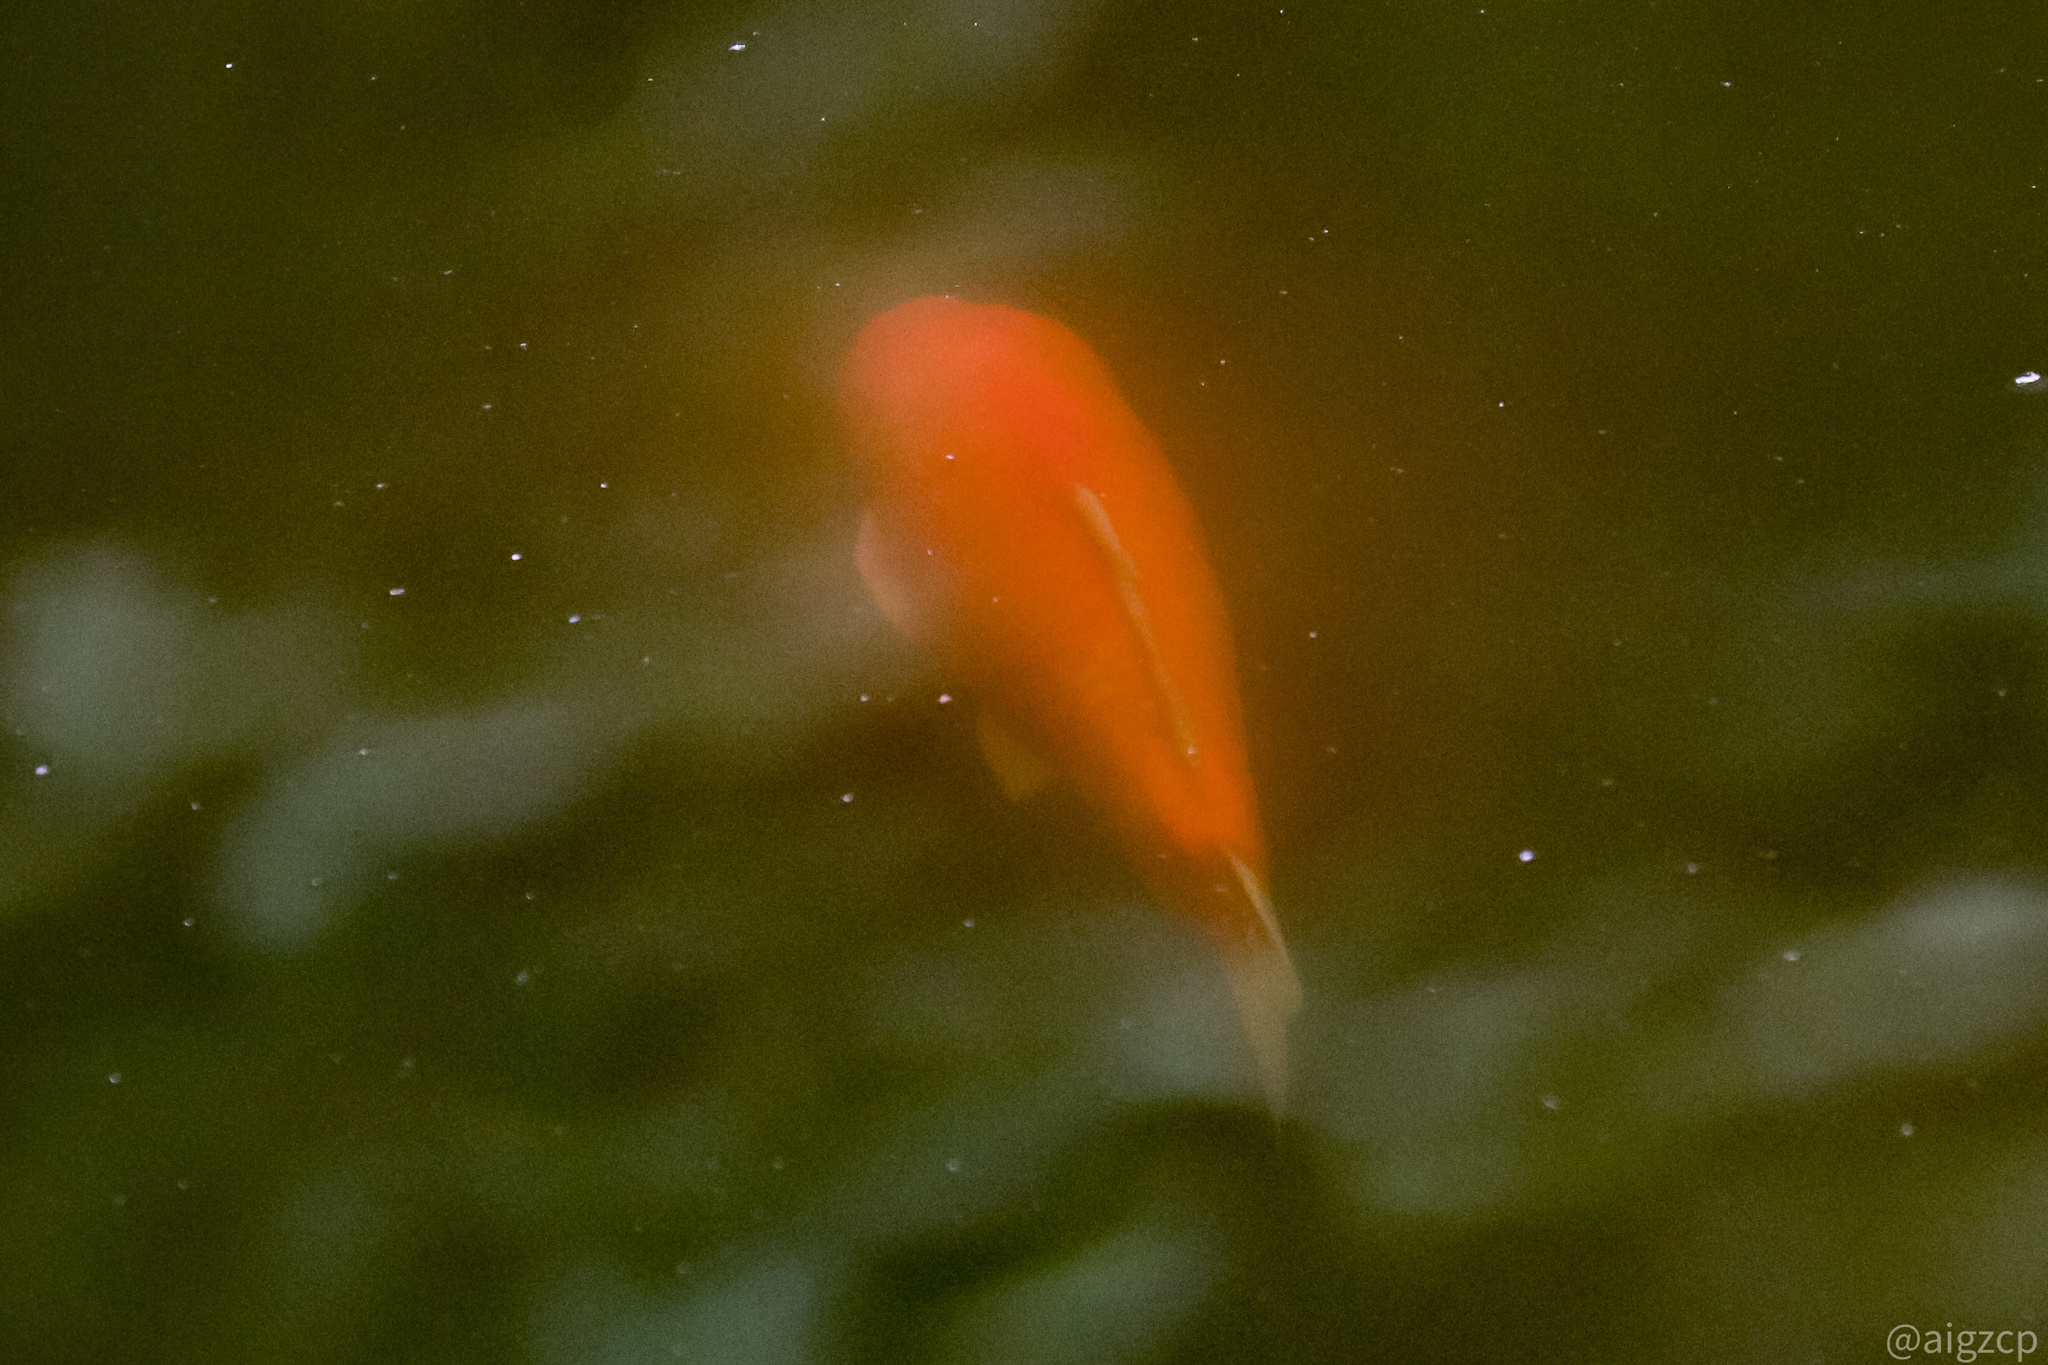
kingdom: Animalia
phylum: Chordata
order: Cypriniformes
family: Cyprinidae
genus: Cyprinus
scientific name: Cyprinus rubrofuscus
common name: Koi
